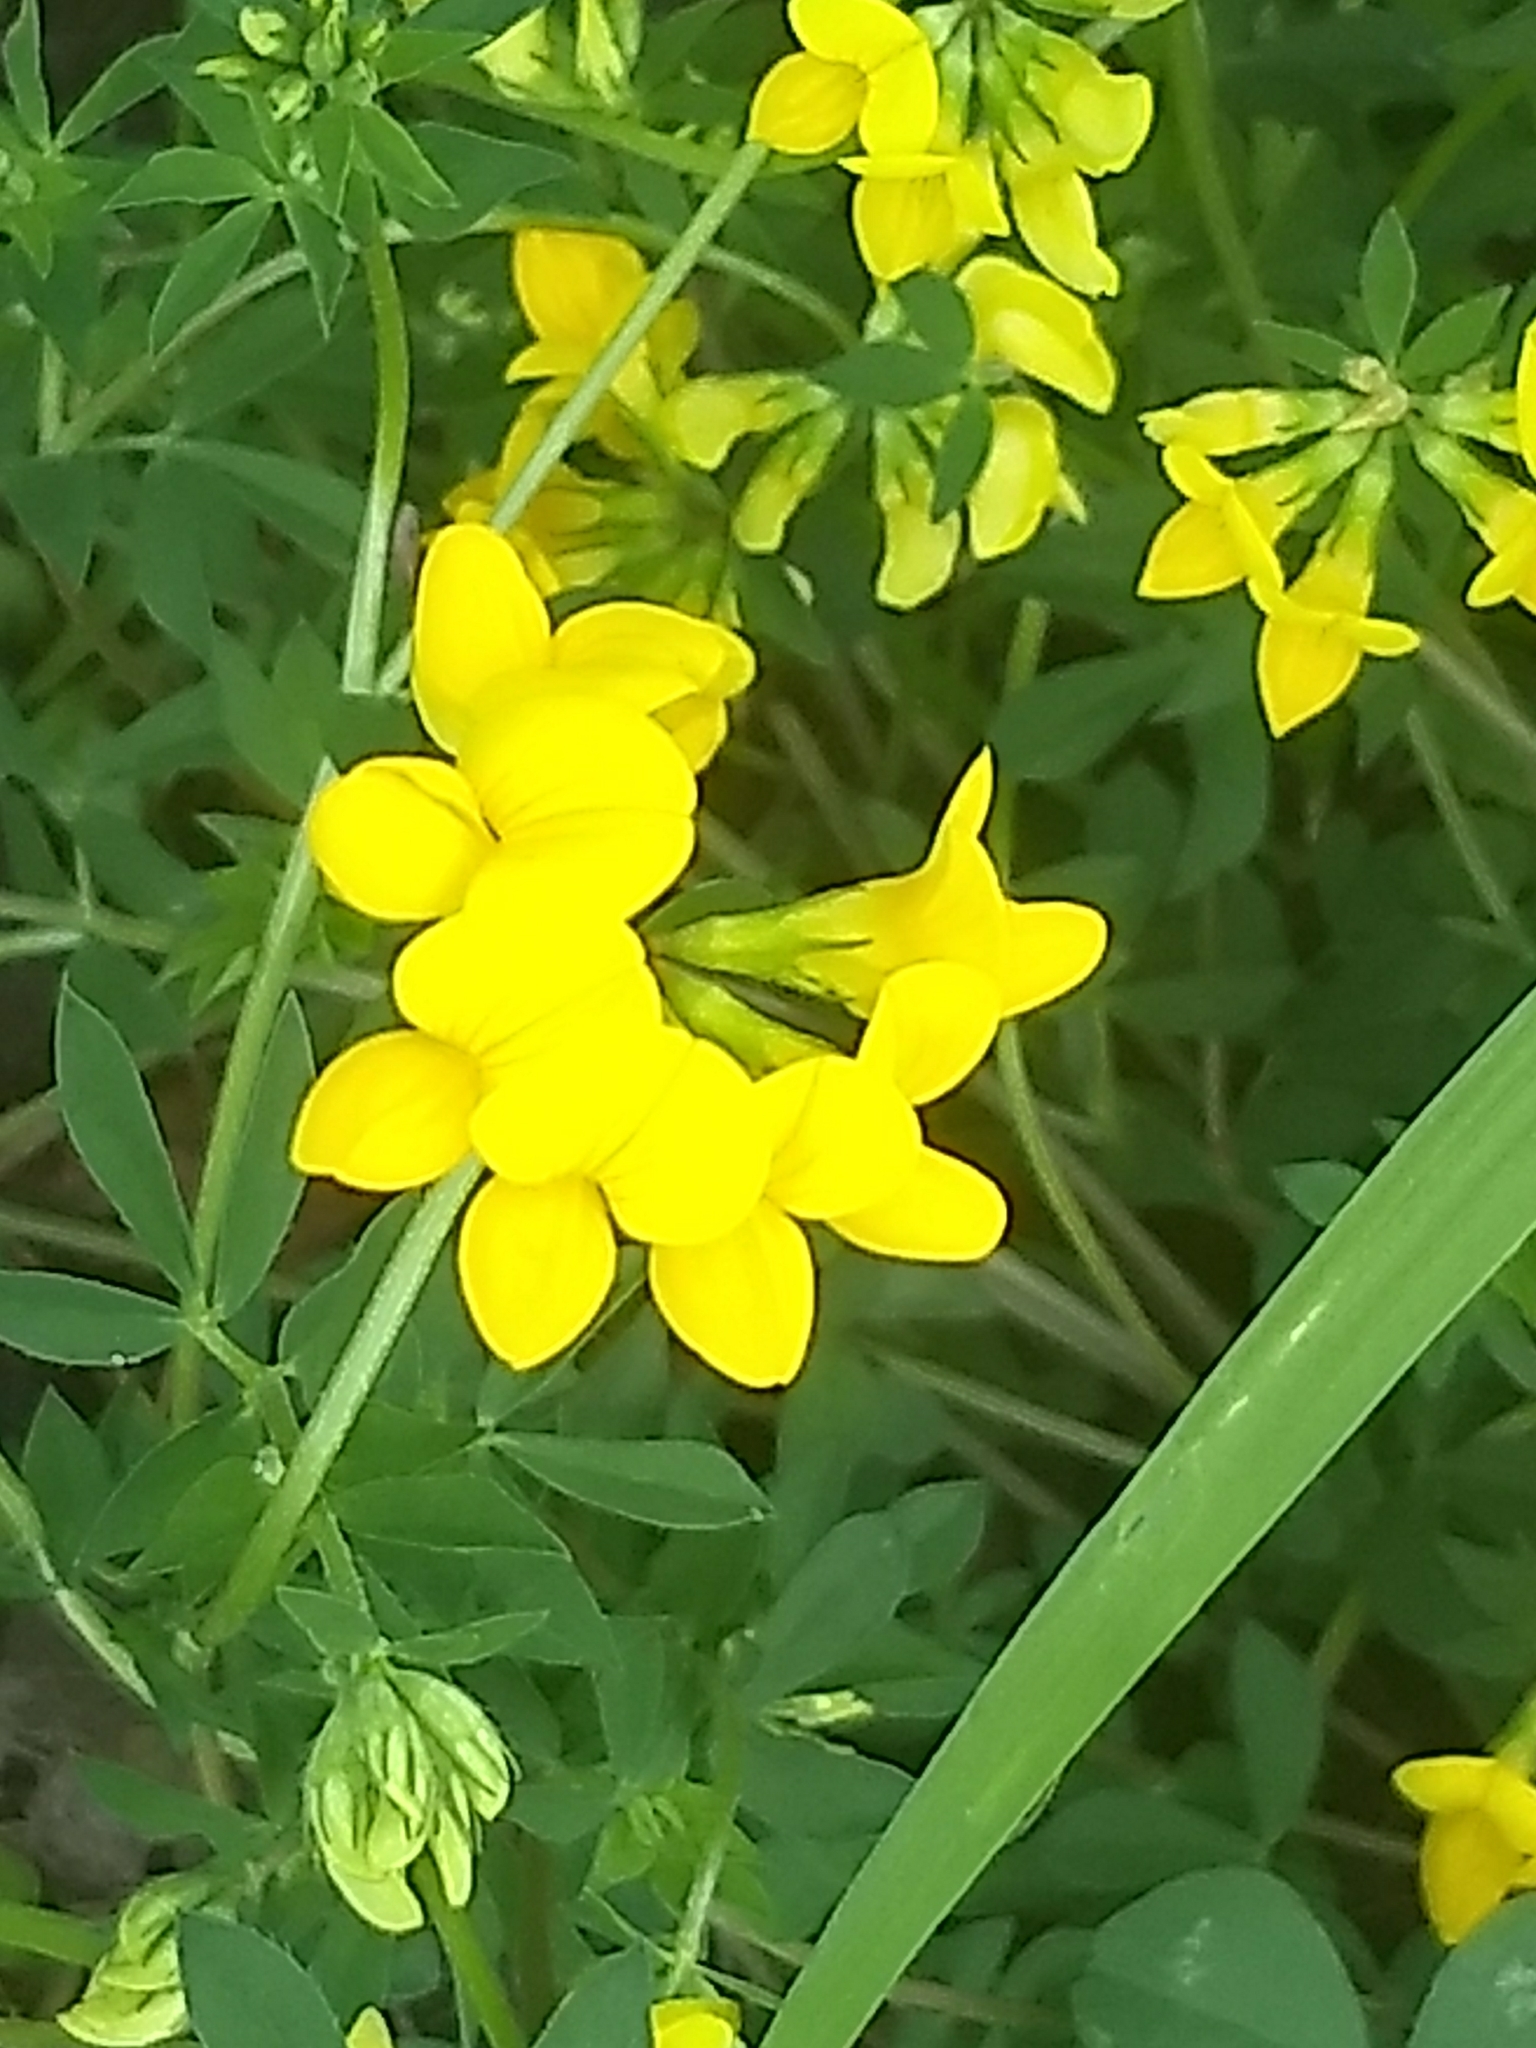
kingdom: Plantae
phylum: Tracheophyta
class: Magnoliopsida
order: Fabales
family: Fabaceae
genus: Lotus
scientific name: Lotus corniculatus
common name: Common bird's-foot-trefoil
